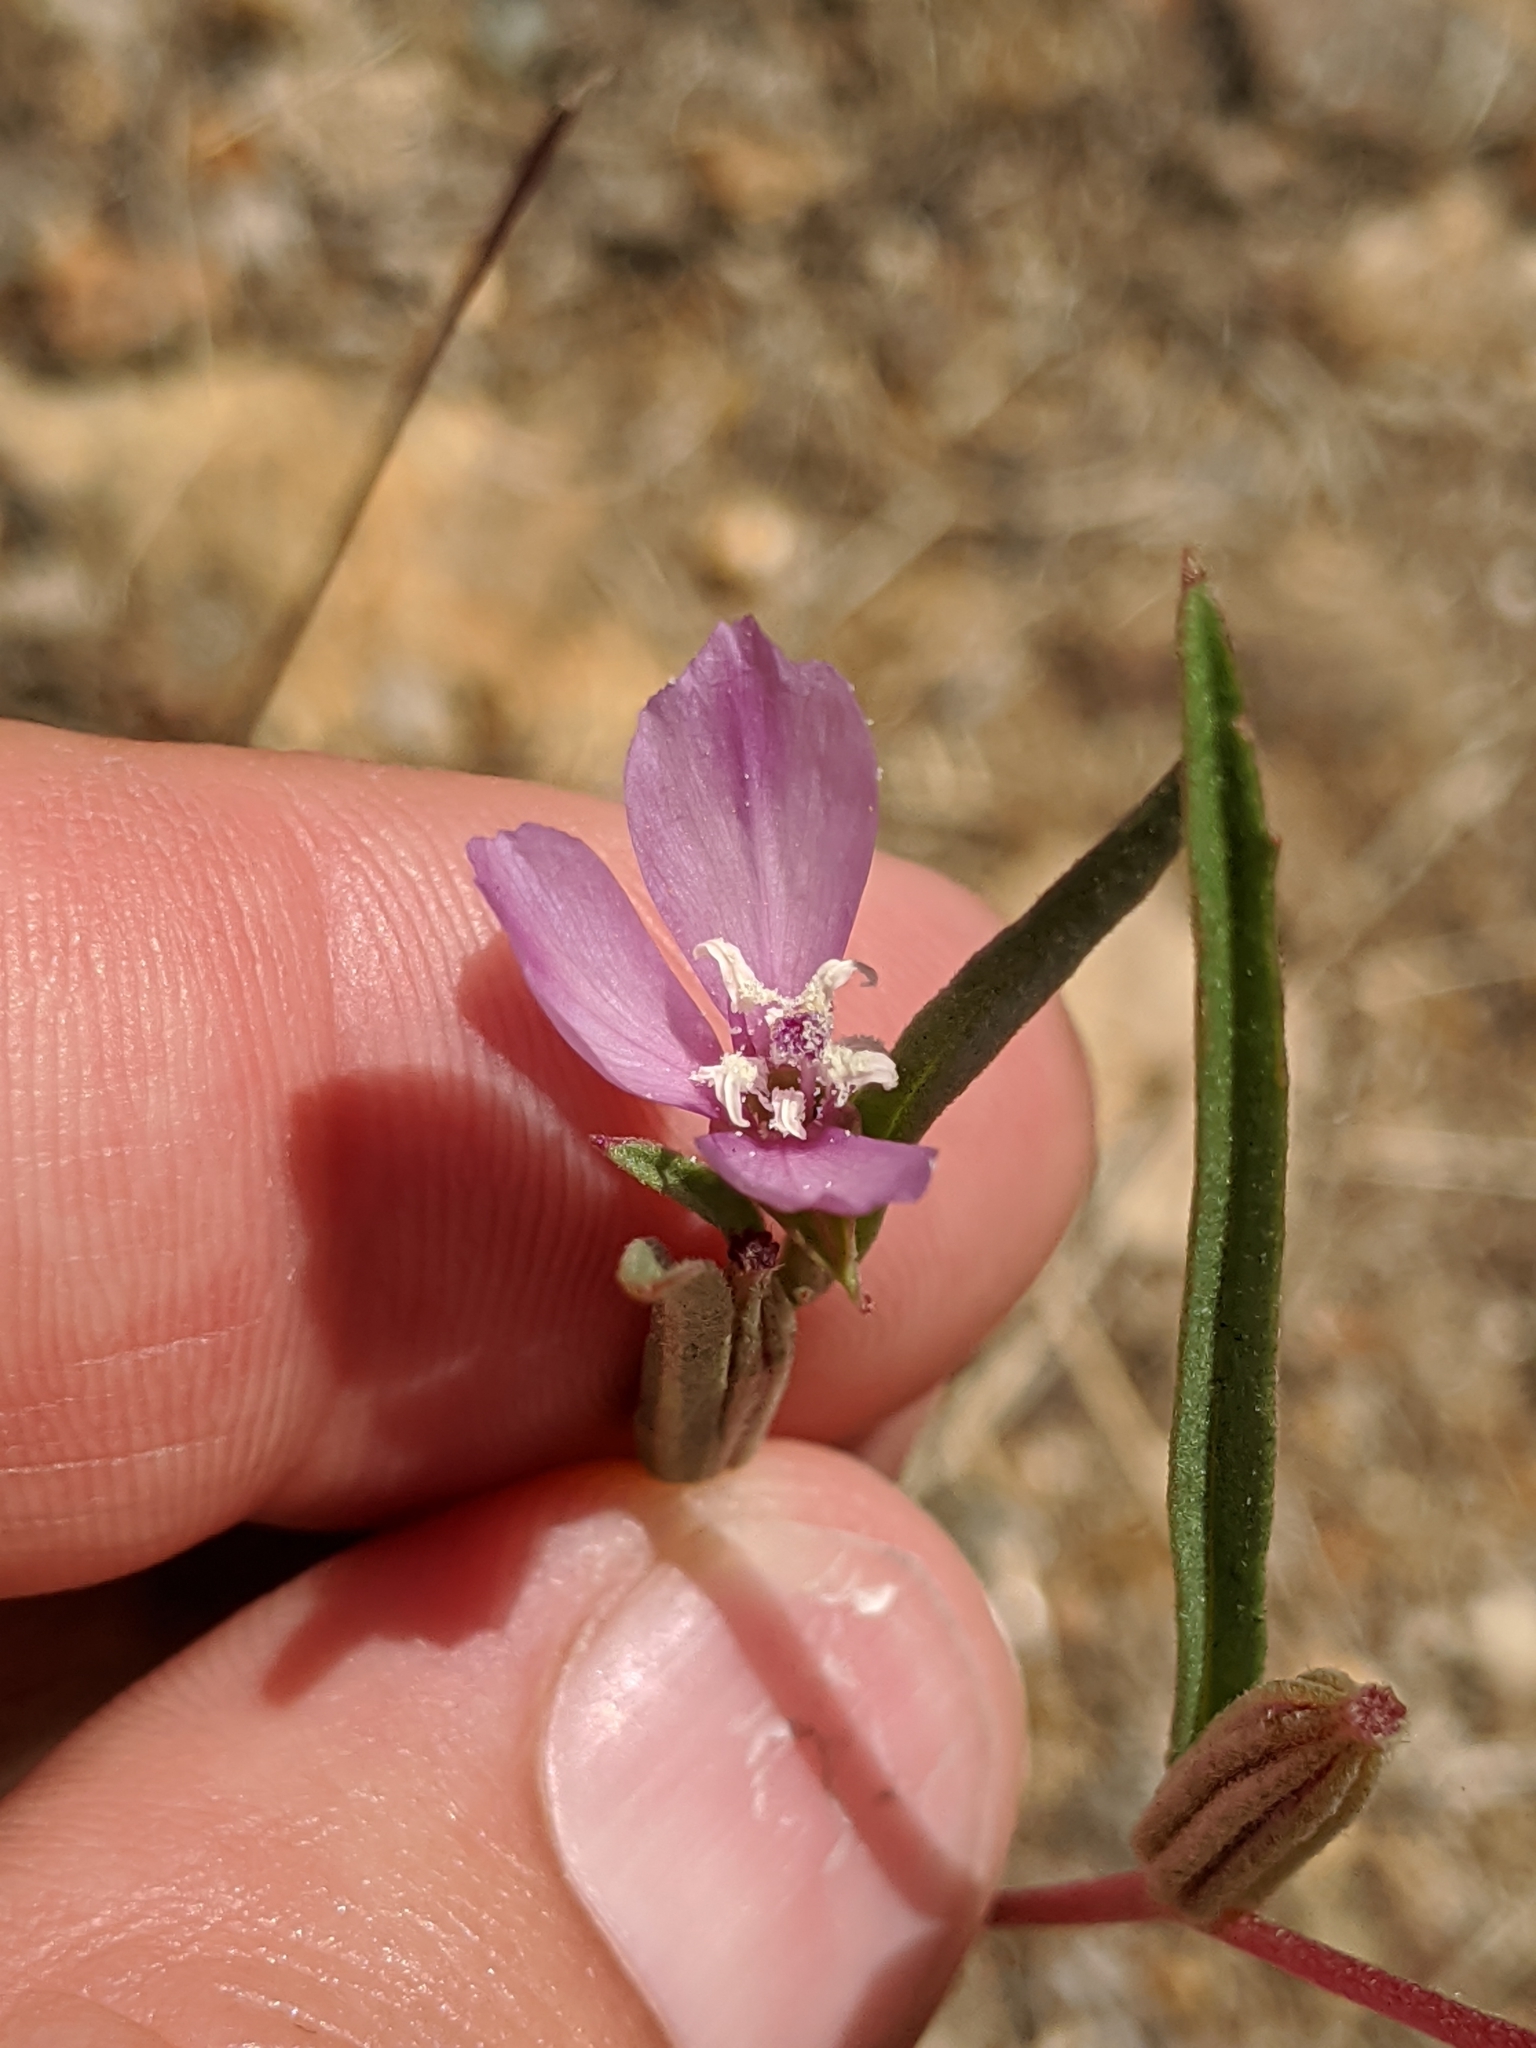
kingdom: Plantae
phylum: Tracheophyta
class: Magnoliopsida
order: Myrtales
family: Onagraceae
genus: Clarkia
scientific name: Clarkia purpurea
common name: Purple clarkia
